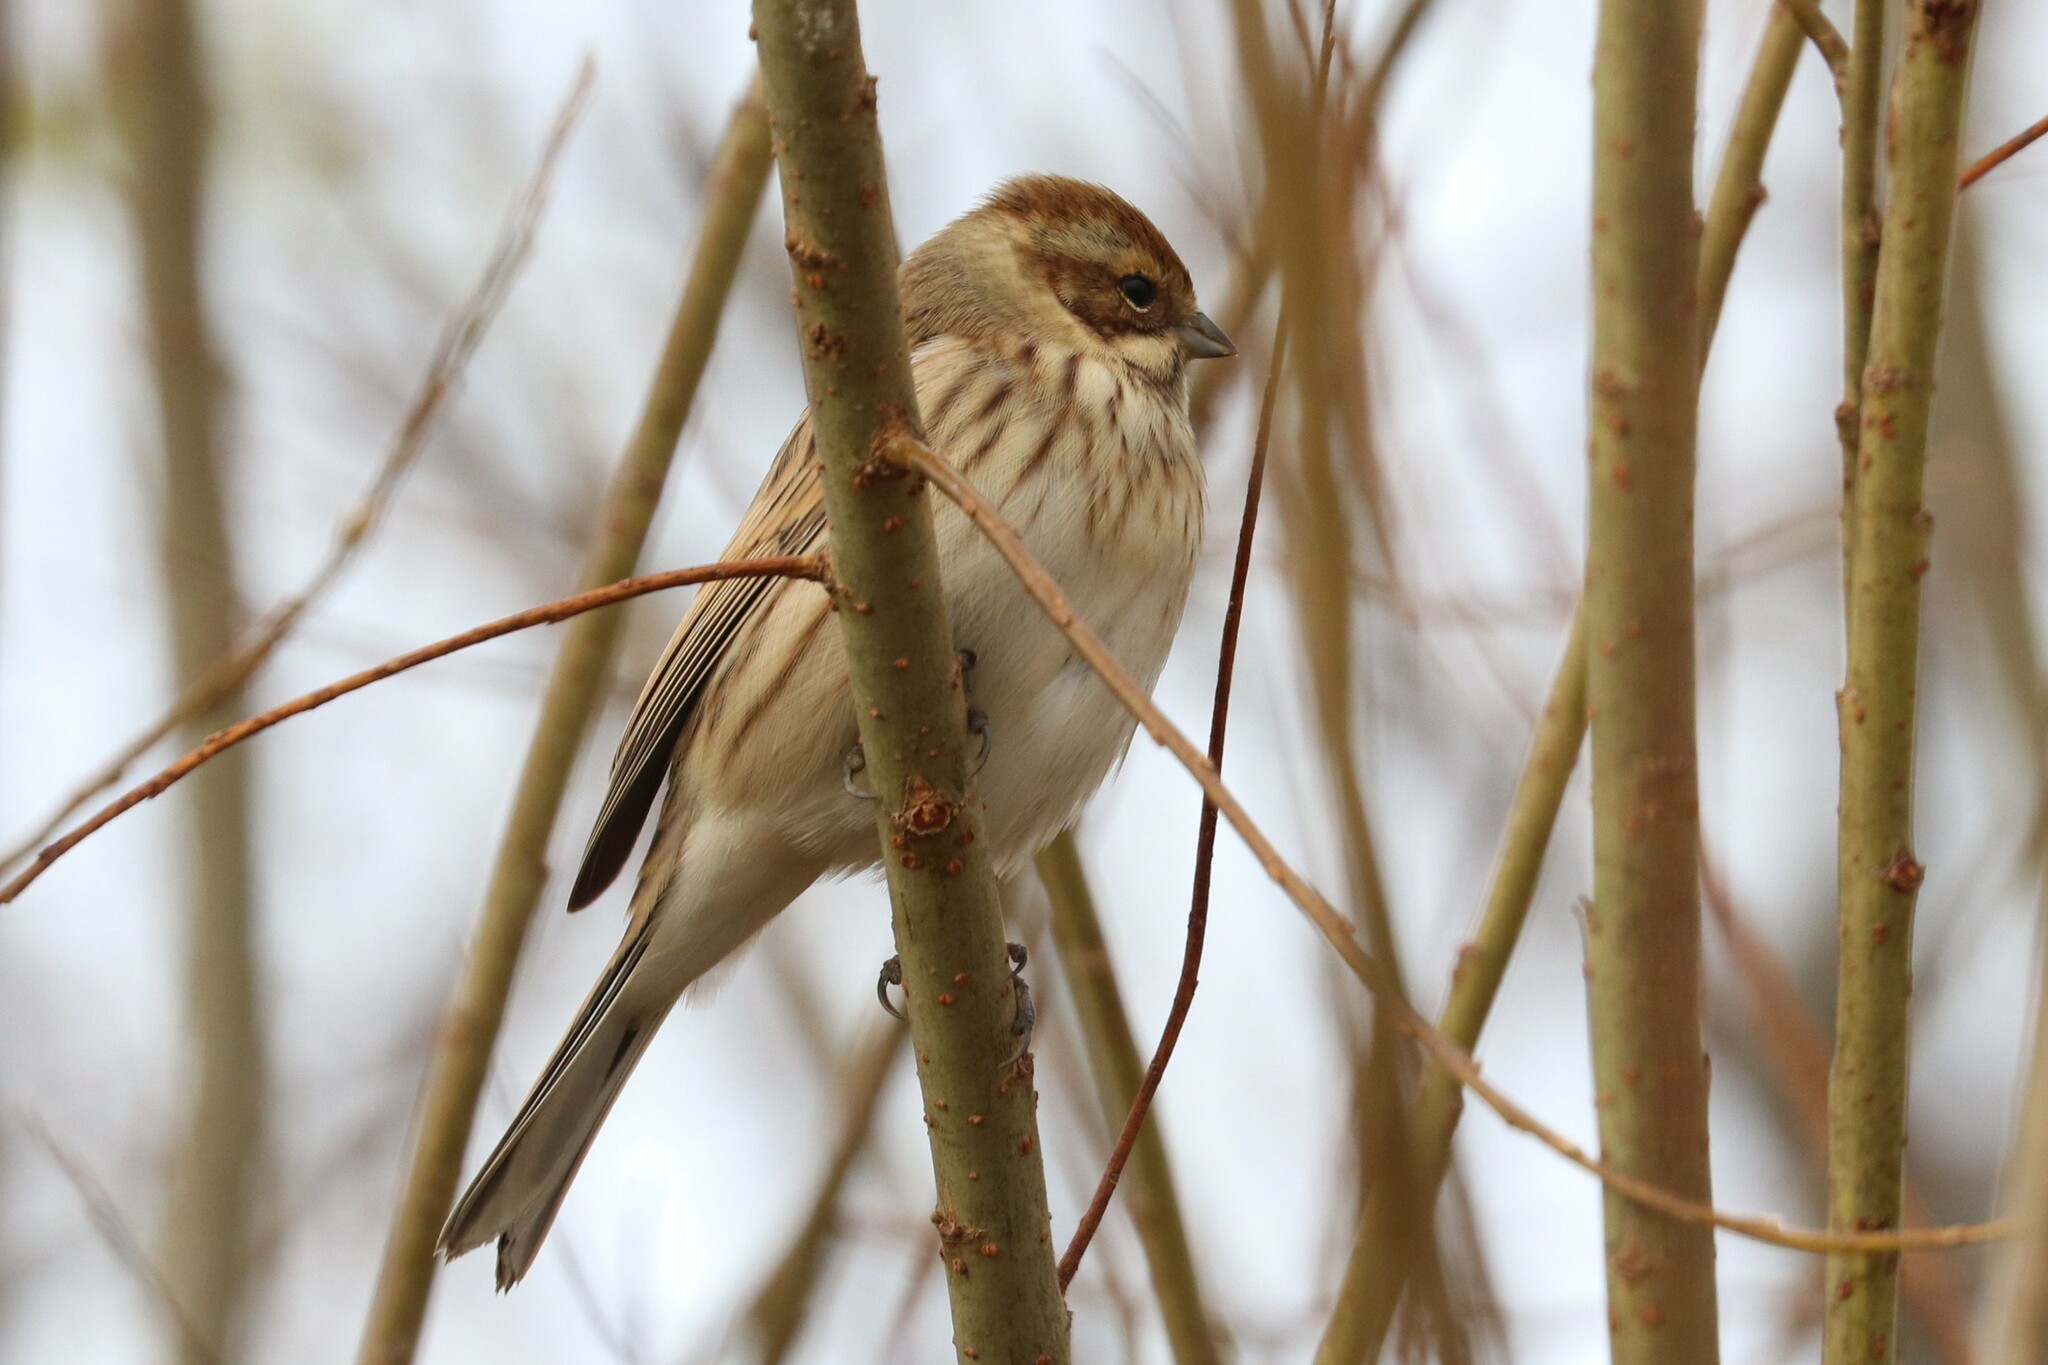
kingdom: Animalia
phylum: Chordata
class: Aves
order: Passeriformes
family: Emberizidae
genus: Emberiza
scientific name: Emberiza schoeniclus
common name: Reed bunting
